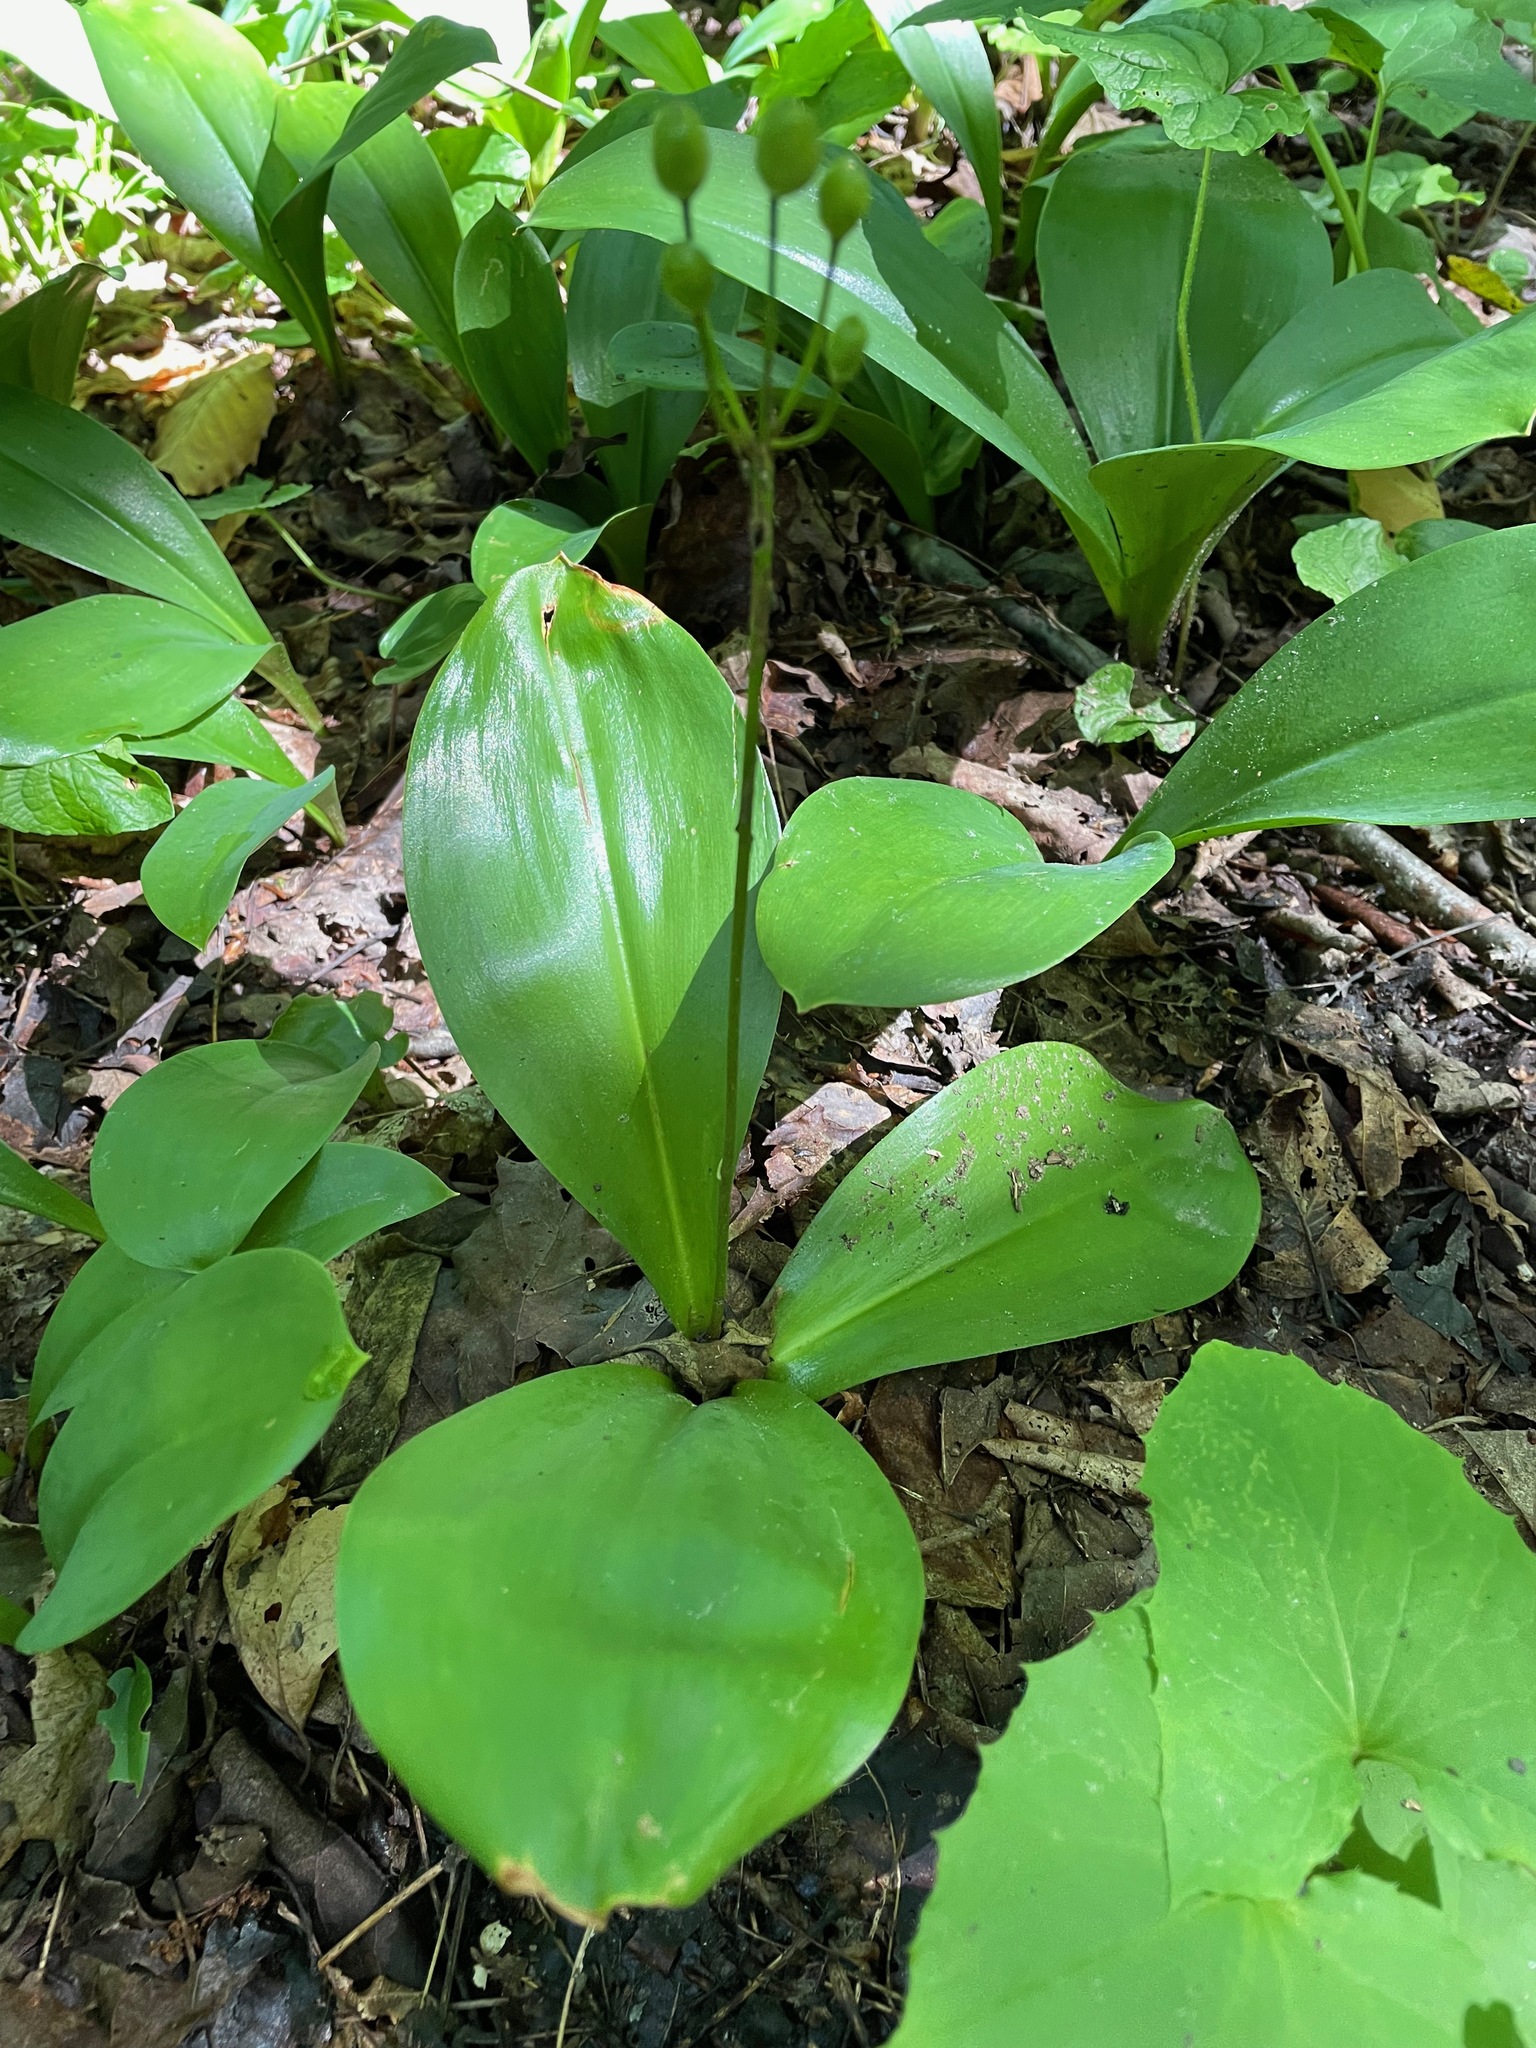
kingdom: Plantae
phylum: Tracheophyta
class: Liliopsida
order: Liliales
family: Liliaceae
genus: Clintonia
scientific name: Clintonia borealis
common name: Yellow clintonia
